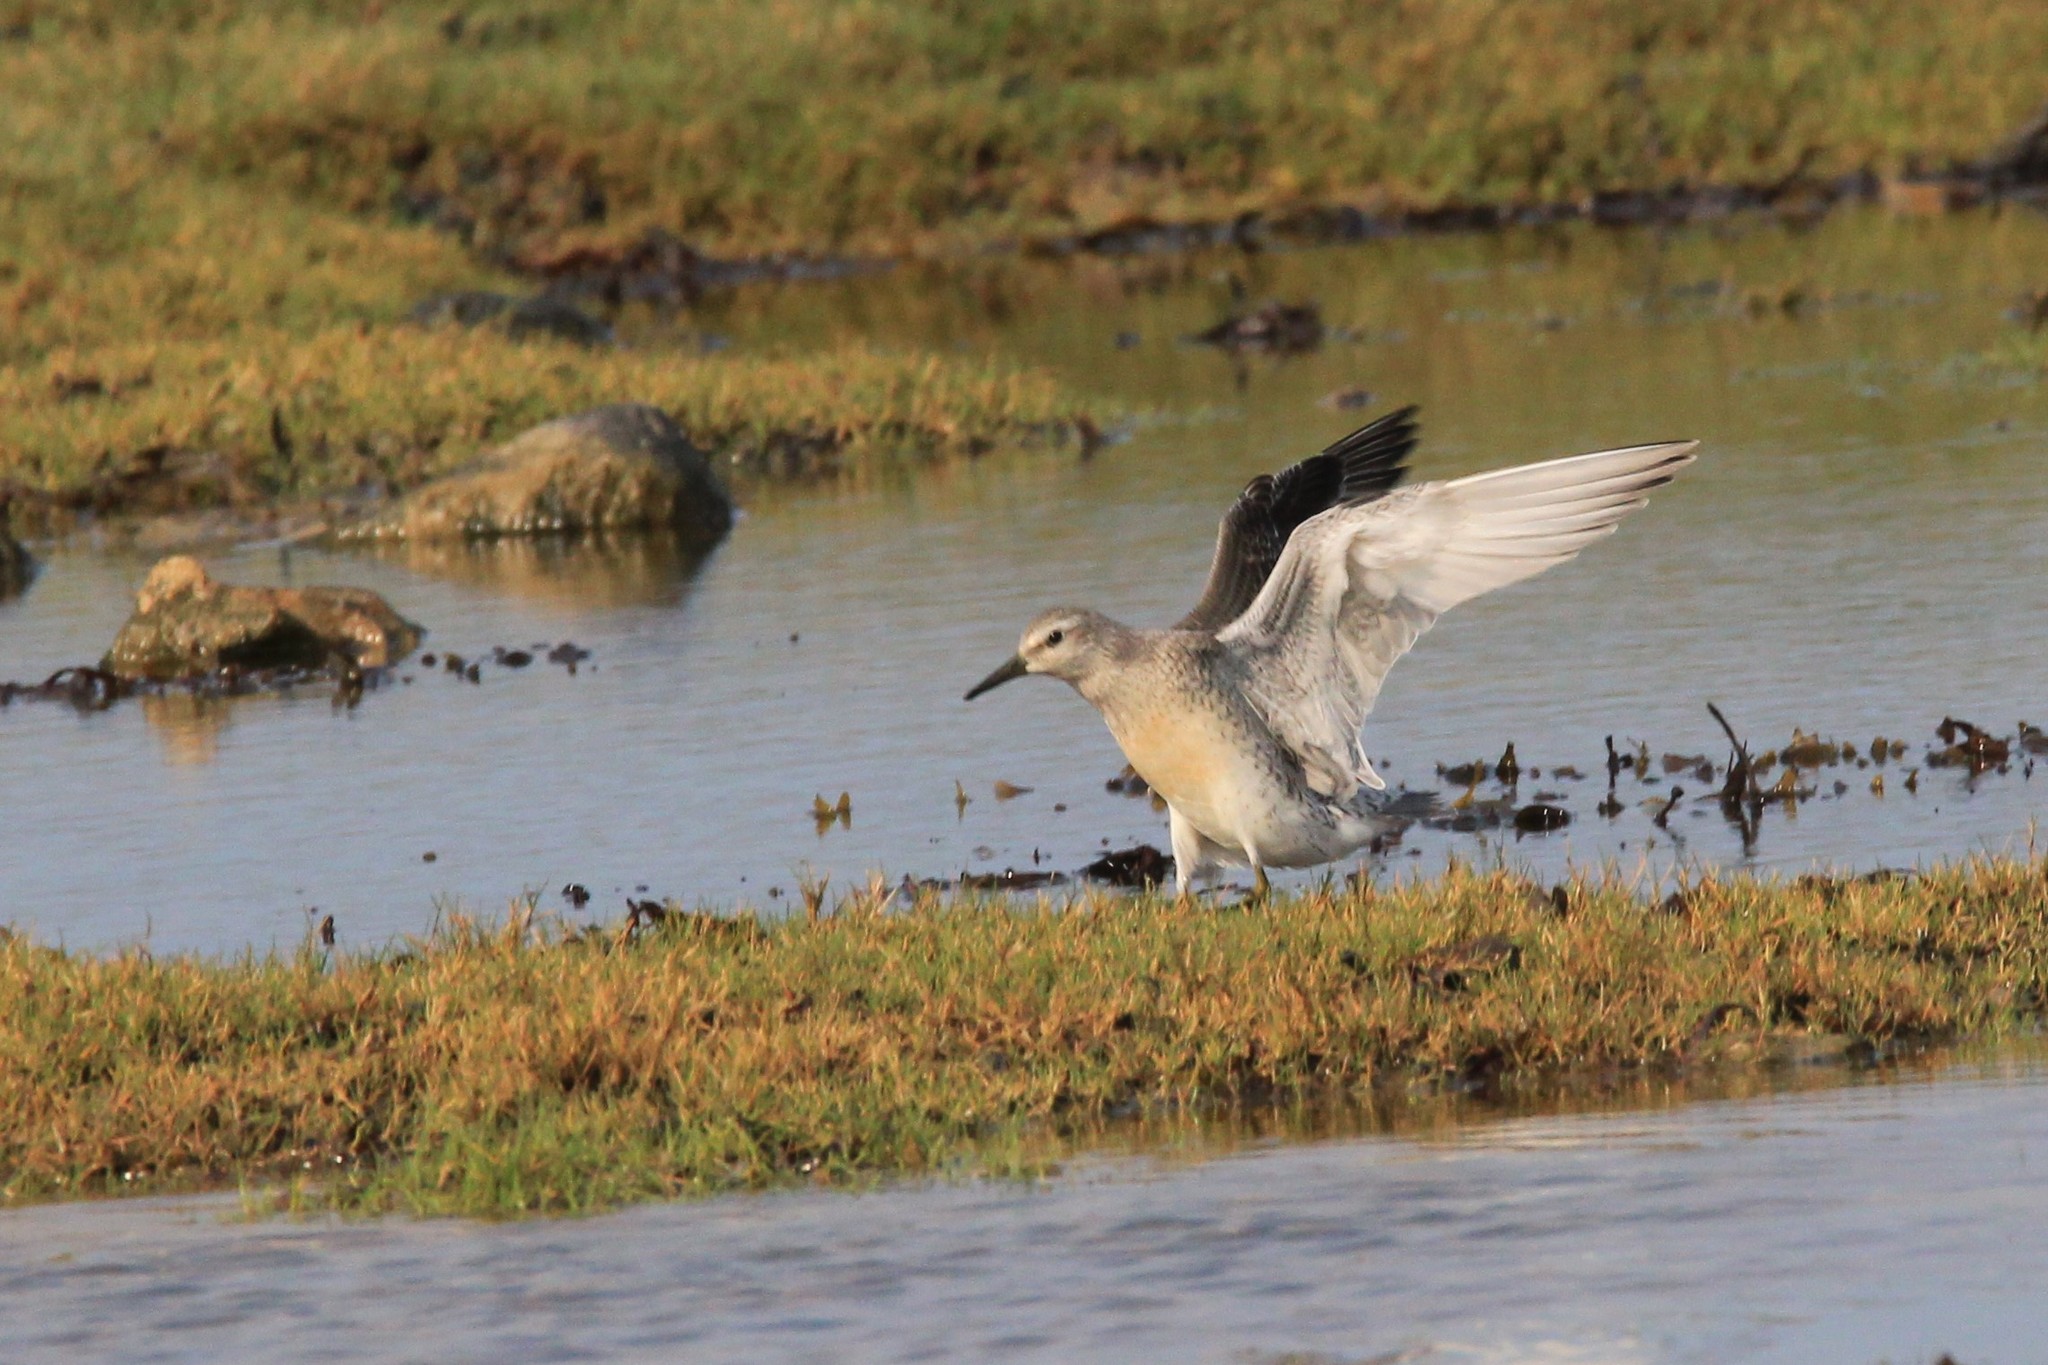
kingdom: Animalia
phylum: Chordata
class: Aves
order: Charadriiformes
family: Scolopacidae
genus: Calidris
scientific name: Calidris canutus
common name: Red knot
